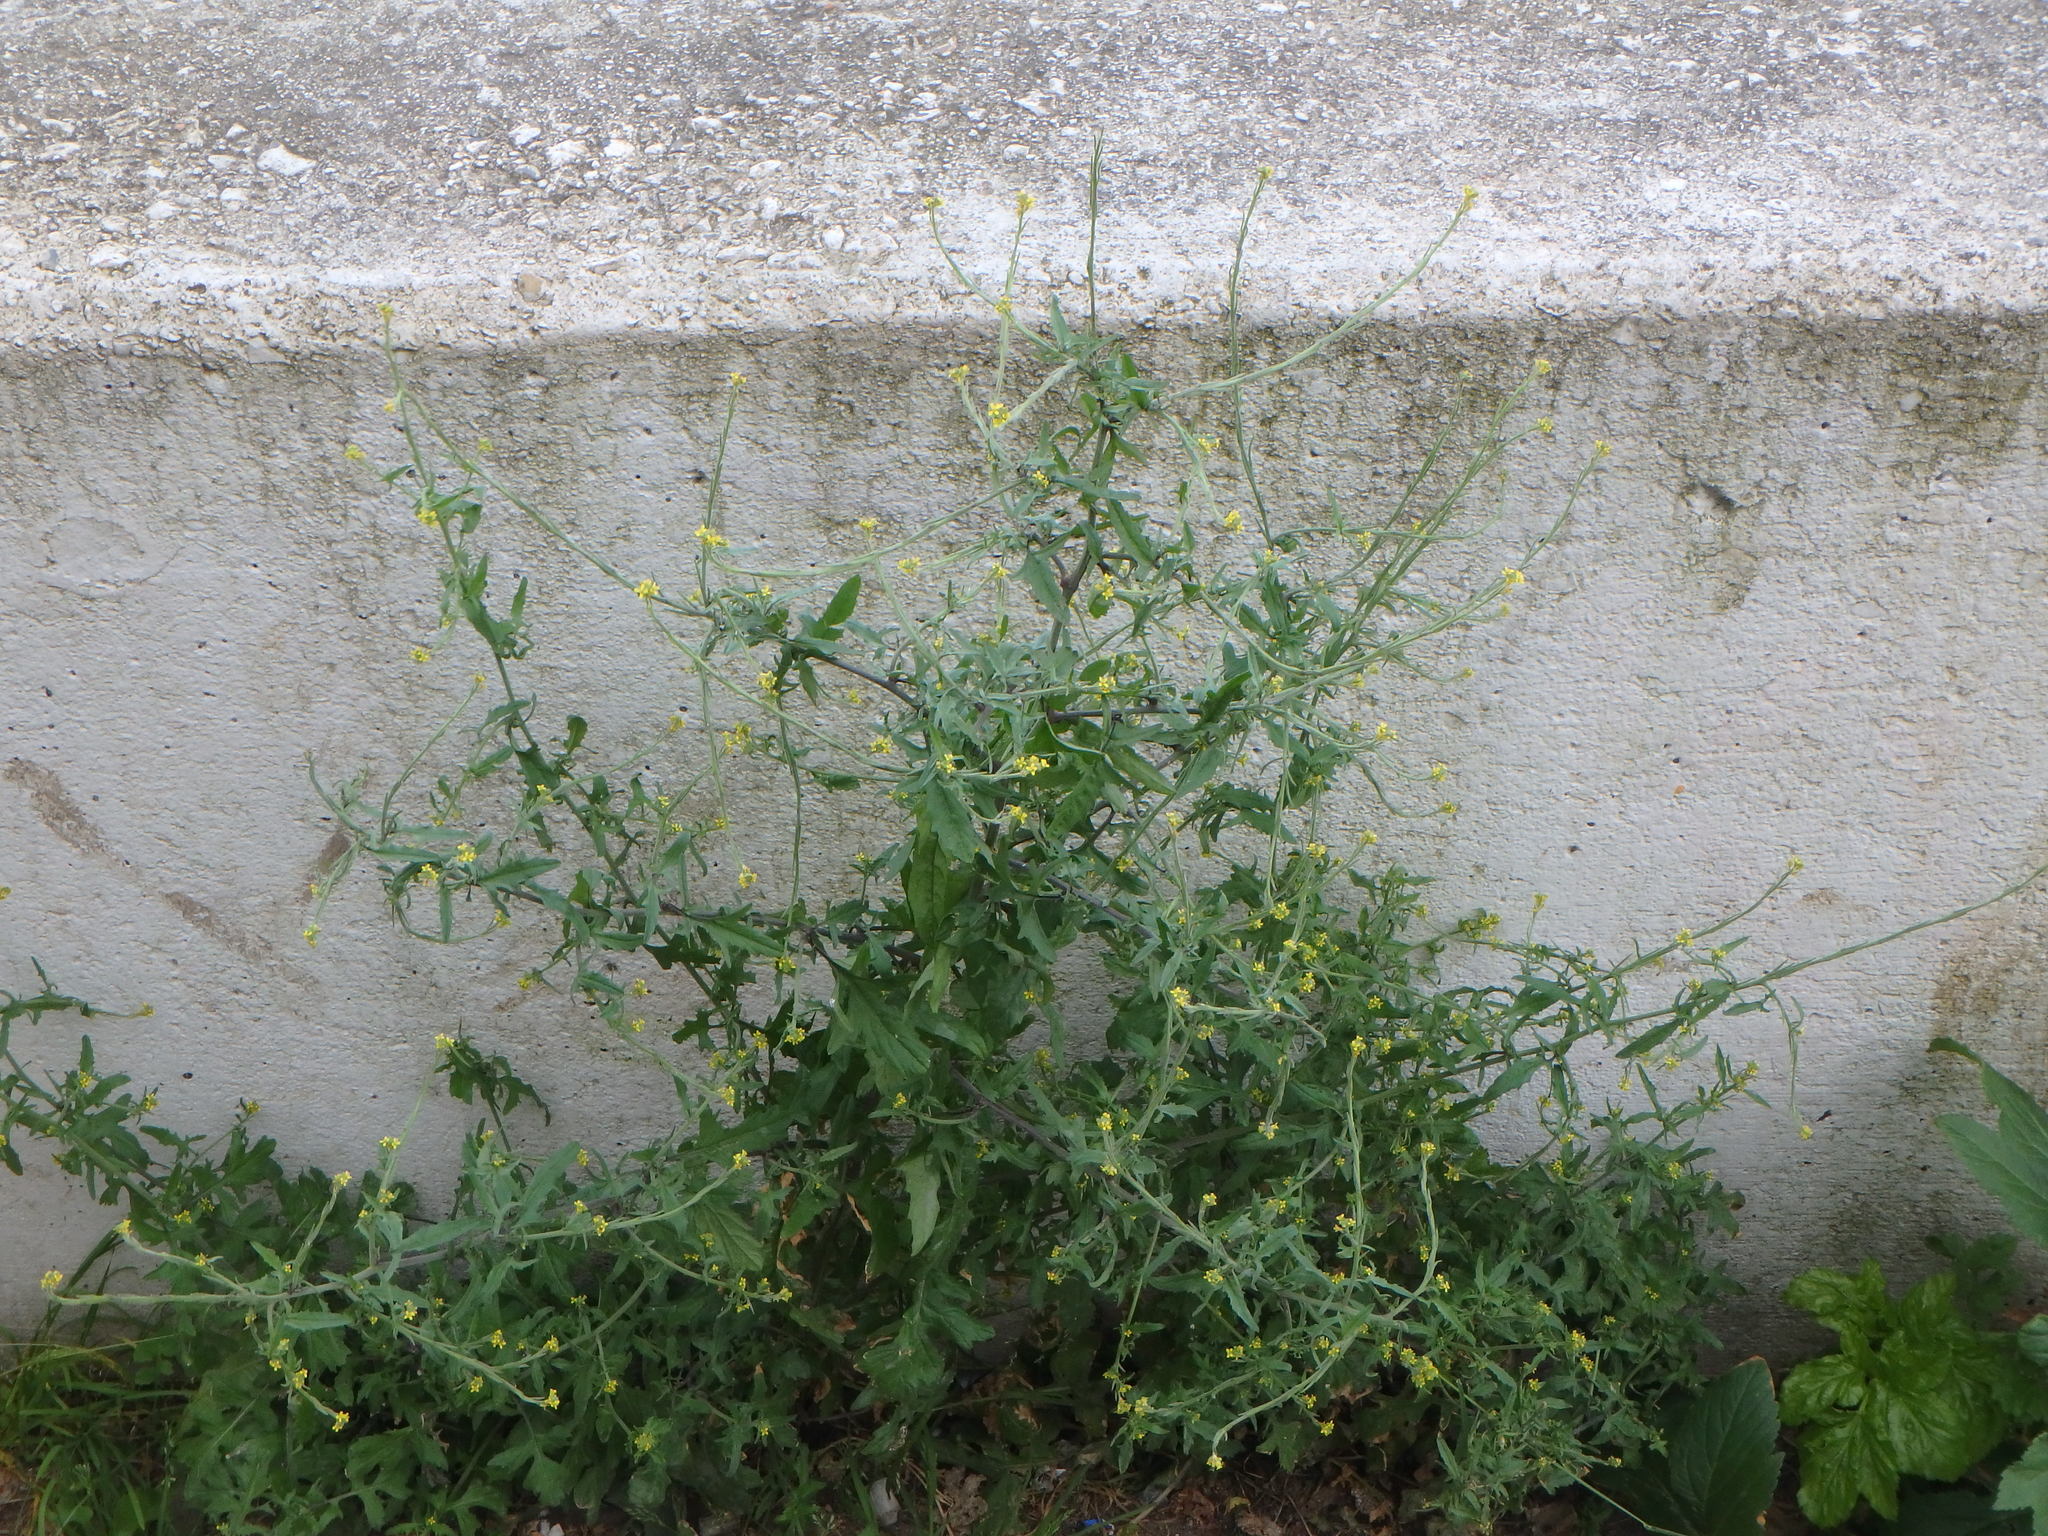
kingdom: Plantae
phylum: Tracheophyta
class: Magnoliopsida
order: Brassicales
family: Brassicaceae
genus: Sisymbrium
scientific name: Sisymbrium officinale
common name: Hedge mustard
